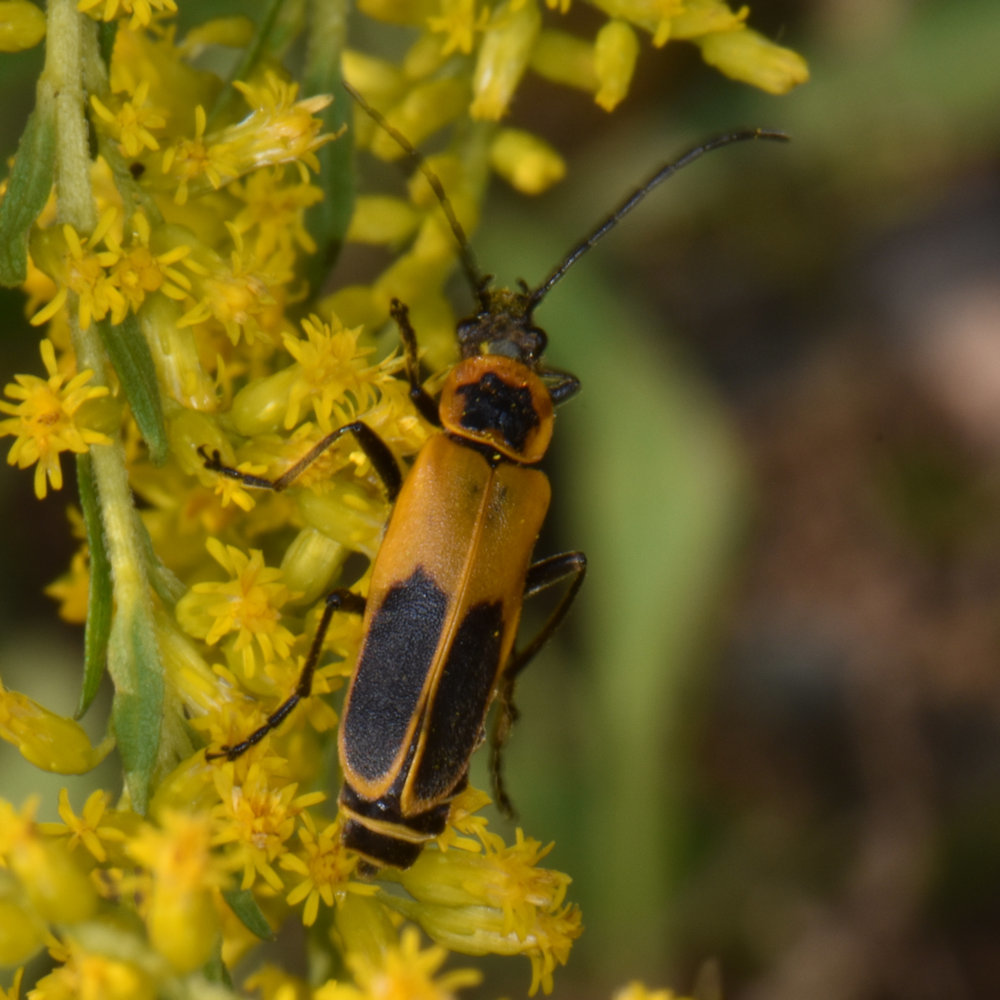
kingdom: Animalia
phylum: Arthropoda
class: Insecta
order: Coleoptera
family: Cantharidae
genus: Chauliognathus
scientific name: Chauliognathus pensylvanicus
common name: Goldenrod soldier beetle
